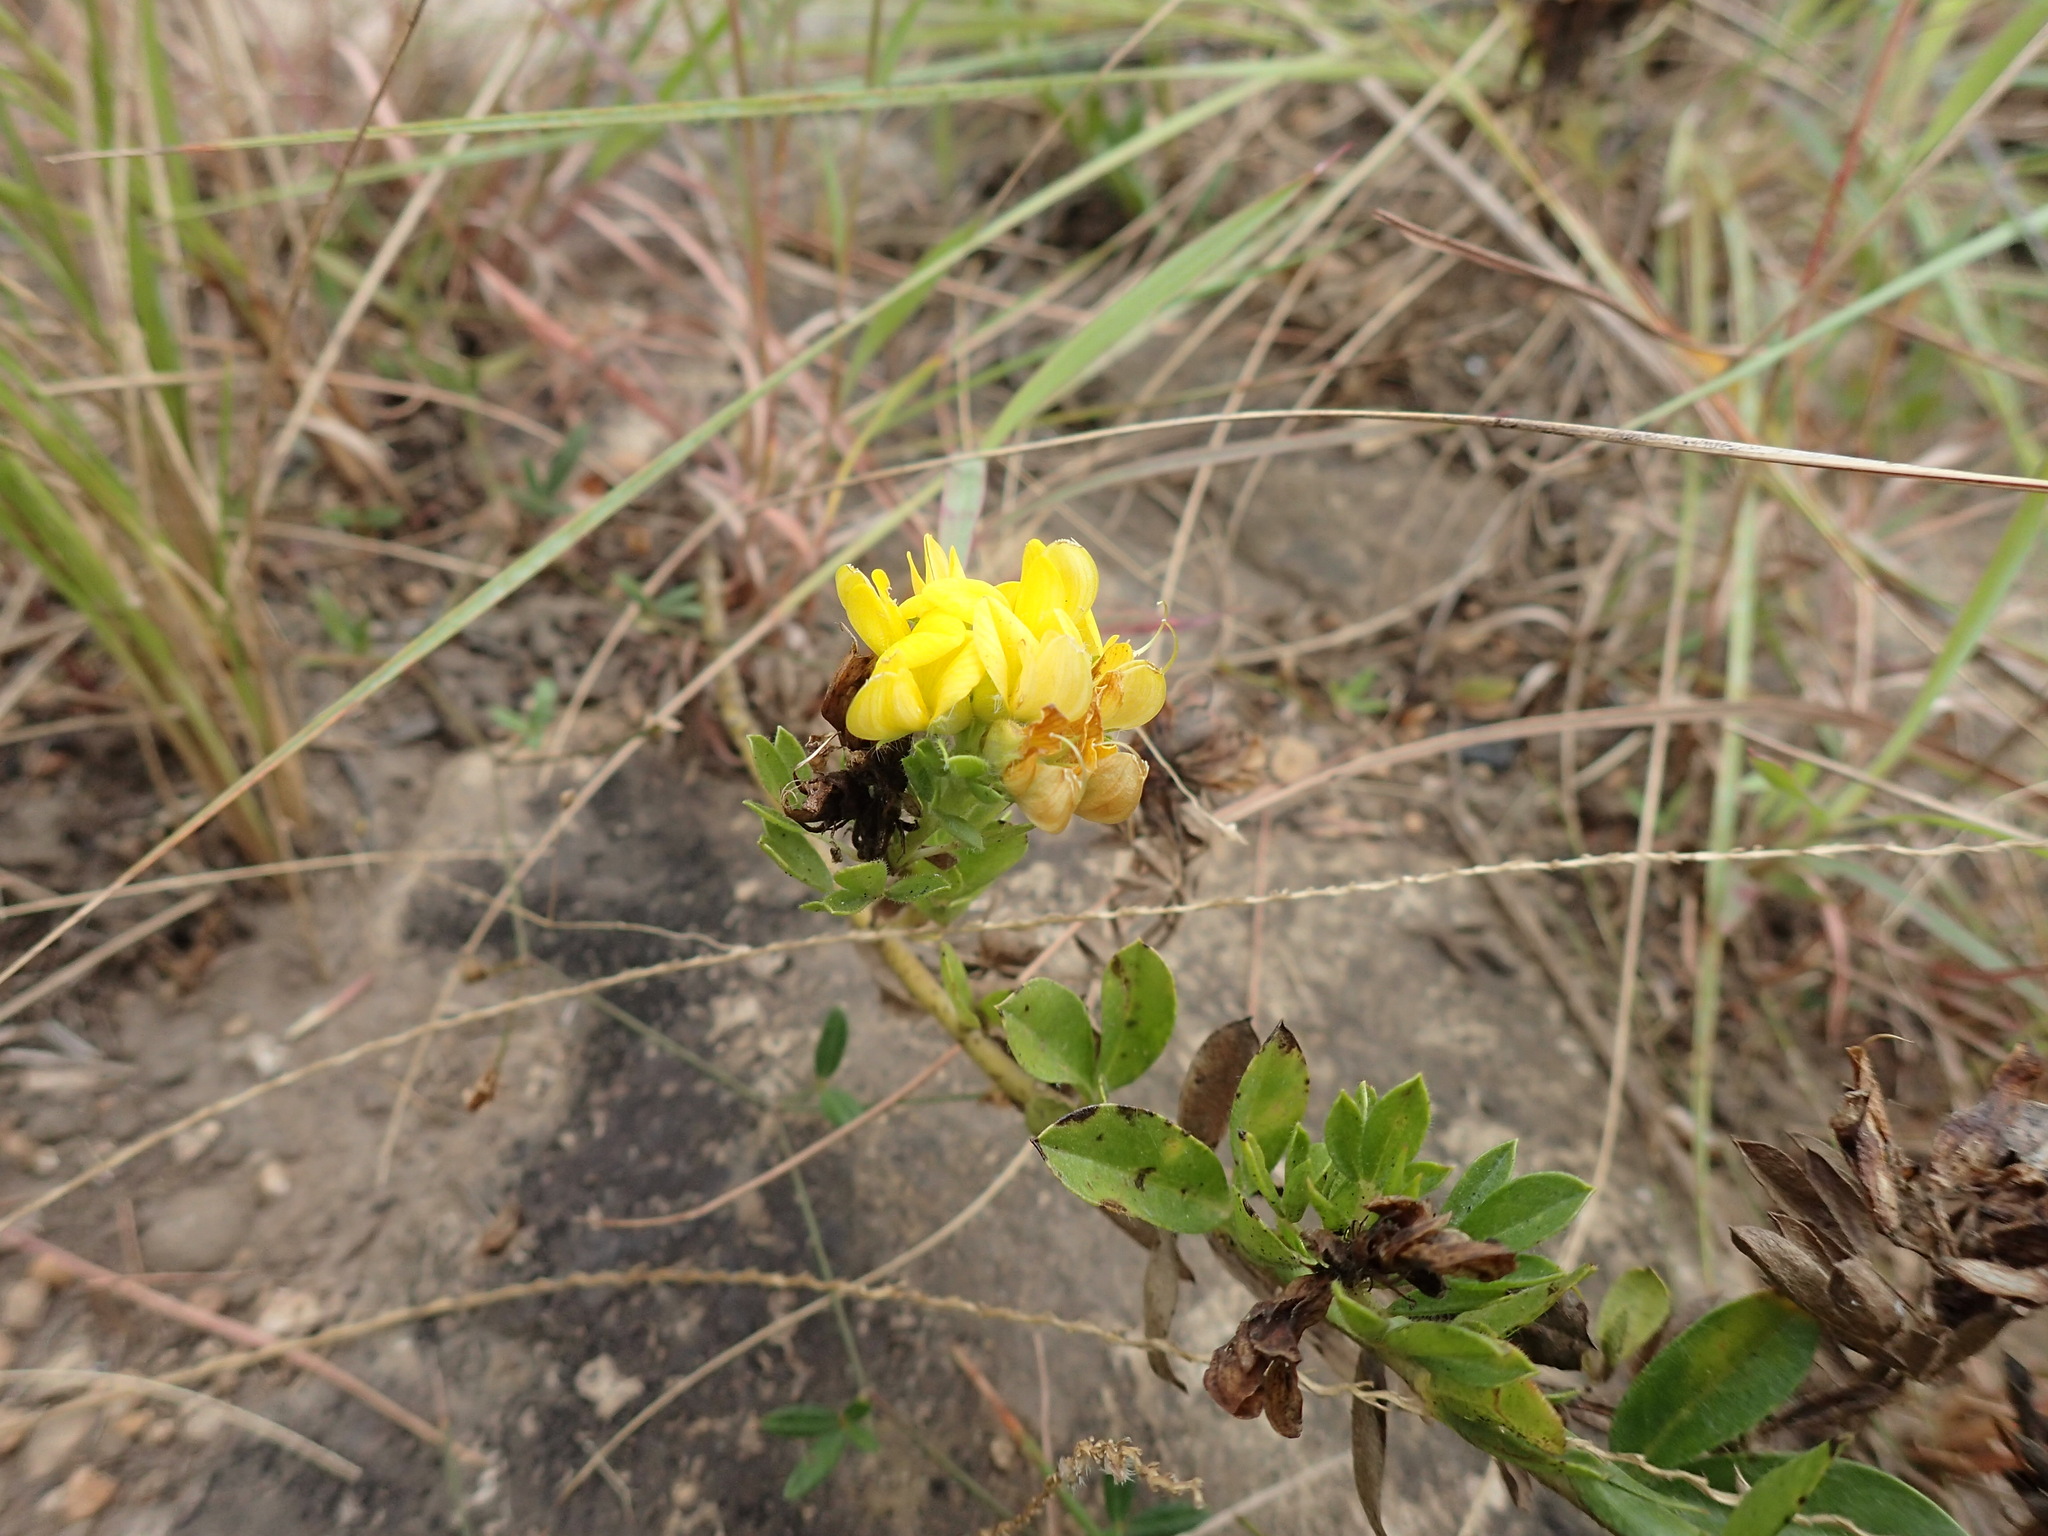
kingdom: Plantae
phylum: Tracheophyta
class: Magnoliopsida
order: Fabales
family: Fabaceae
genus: Leobordea
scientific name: Leobordea corymbosa
